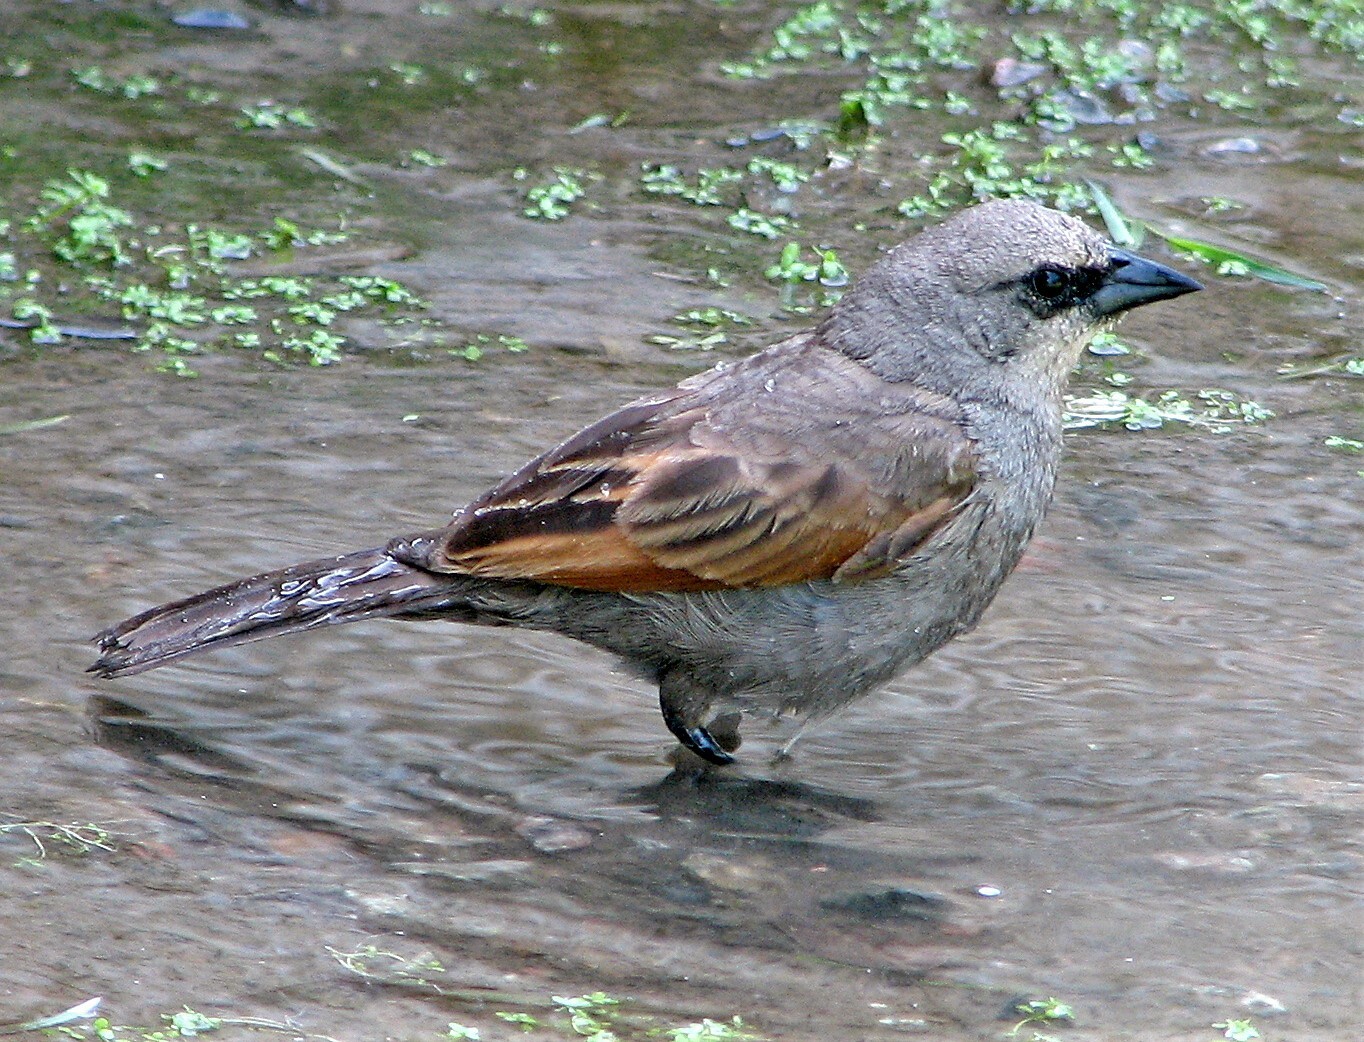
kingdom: Animalia
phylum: Chordata
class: Aves
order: Passeriformes
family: Icteridae
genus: Agelaioides
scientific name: Agelaioides badius
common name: Baywing
